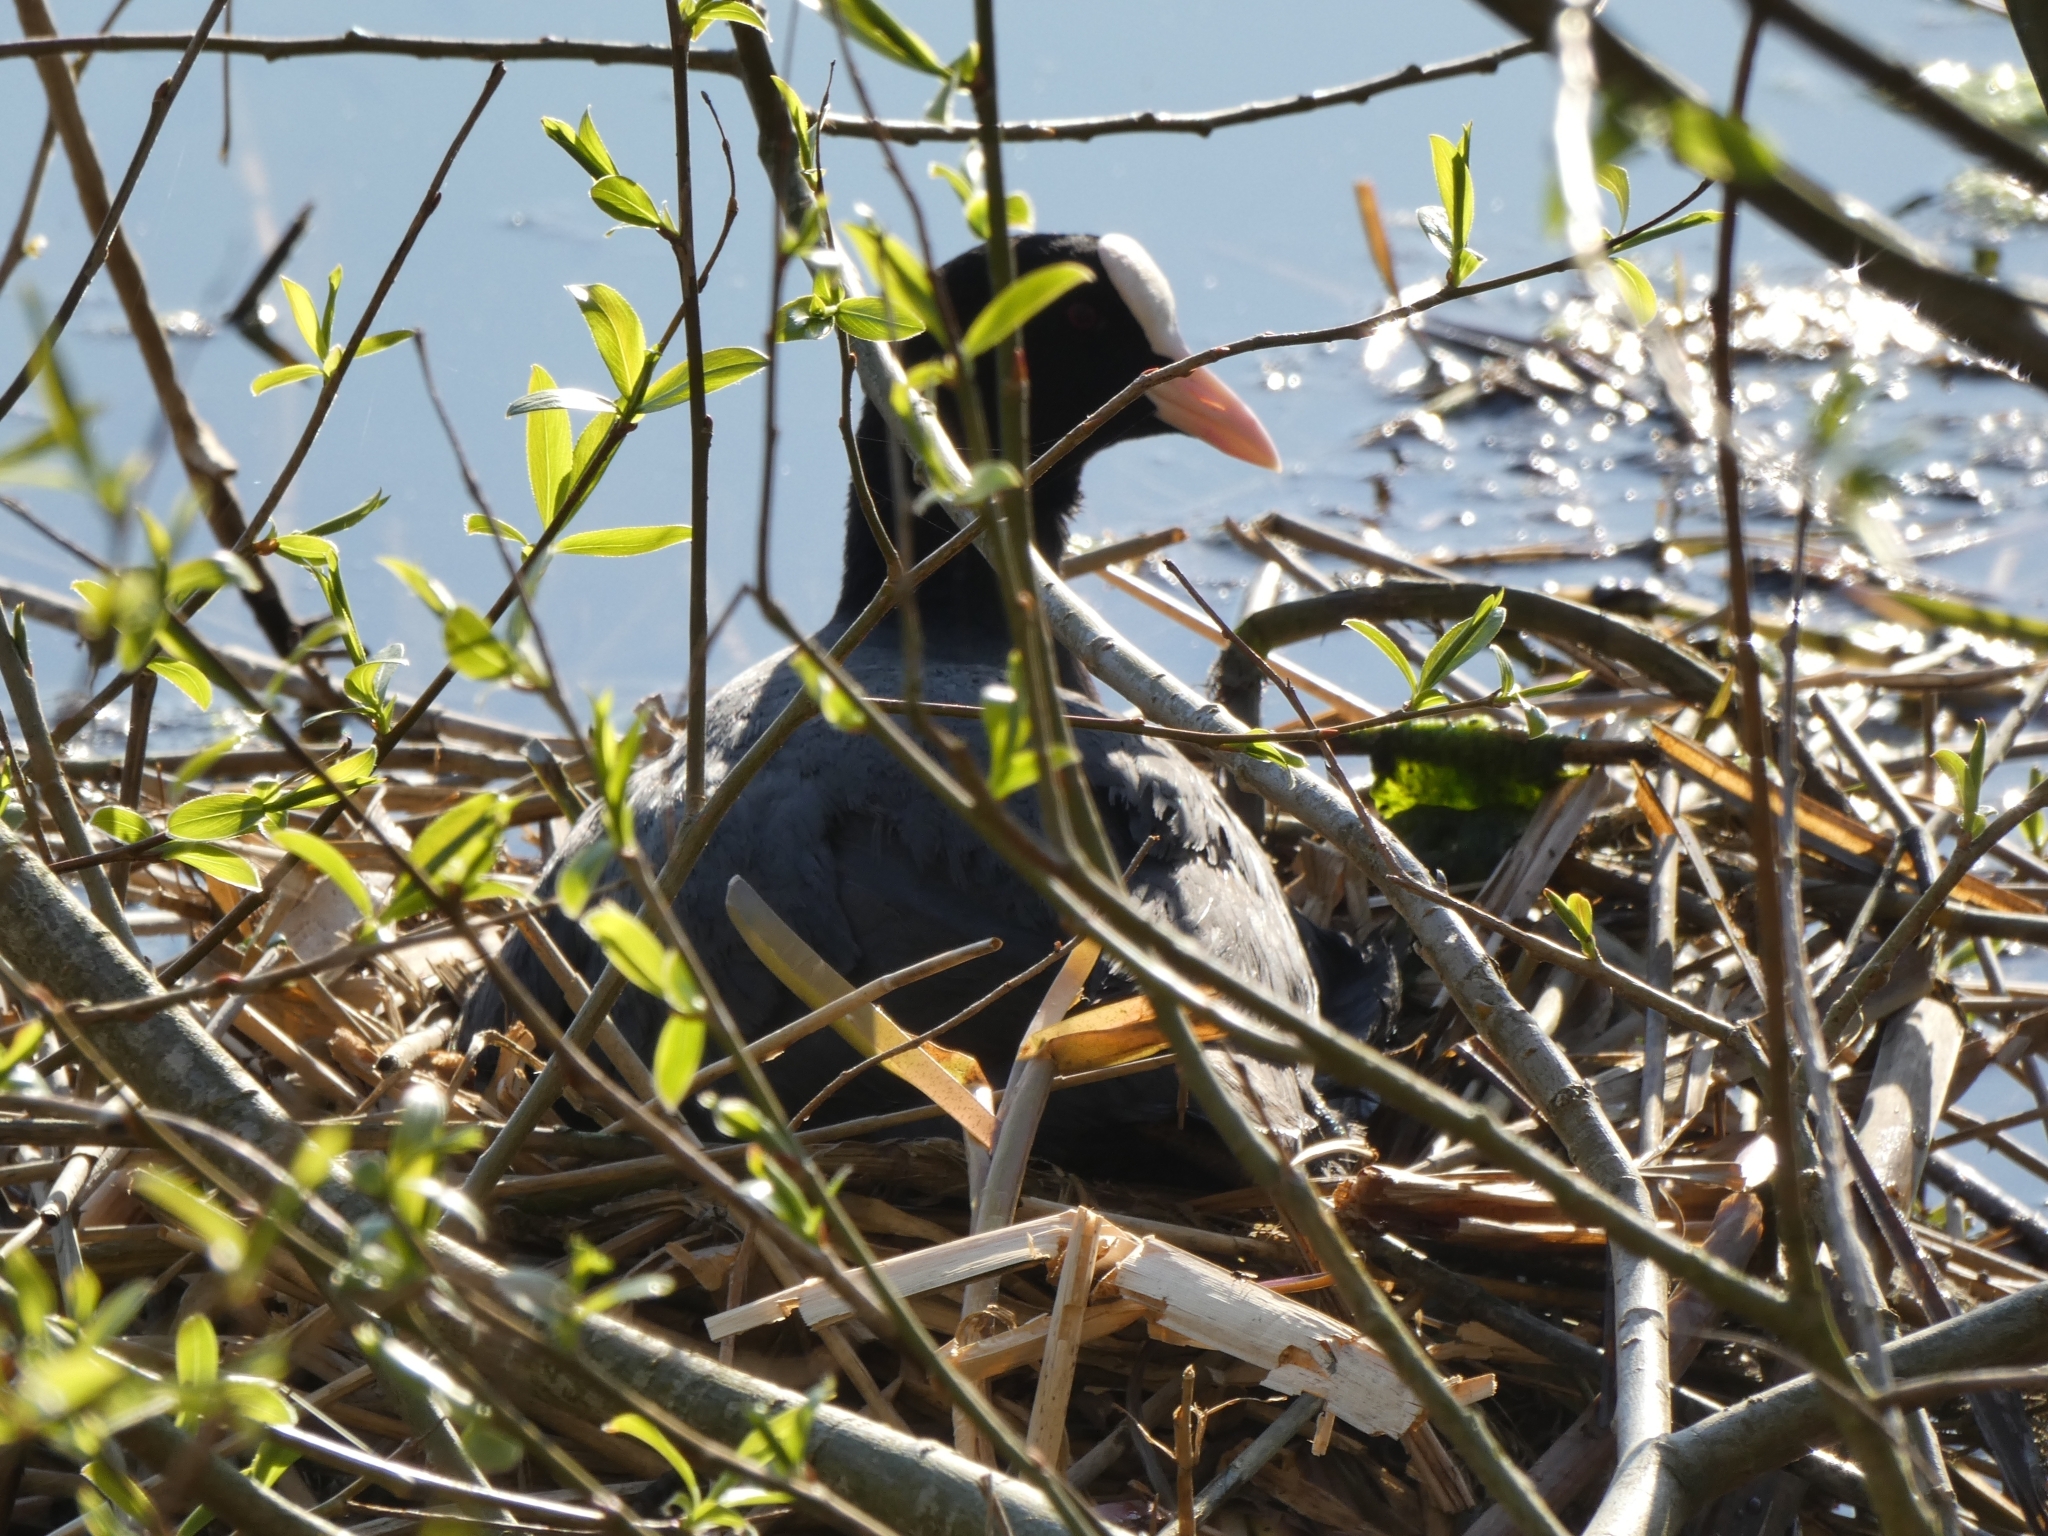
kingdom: Animalia
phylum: Chordata
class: Aves
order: Gruiformes
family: Rallidae
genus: Fulica
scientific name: Fulica atra
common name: Eurasian coot
